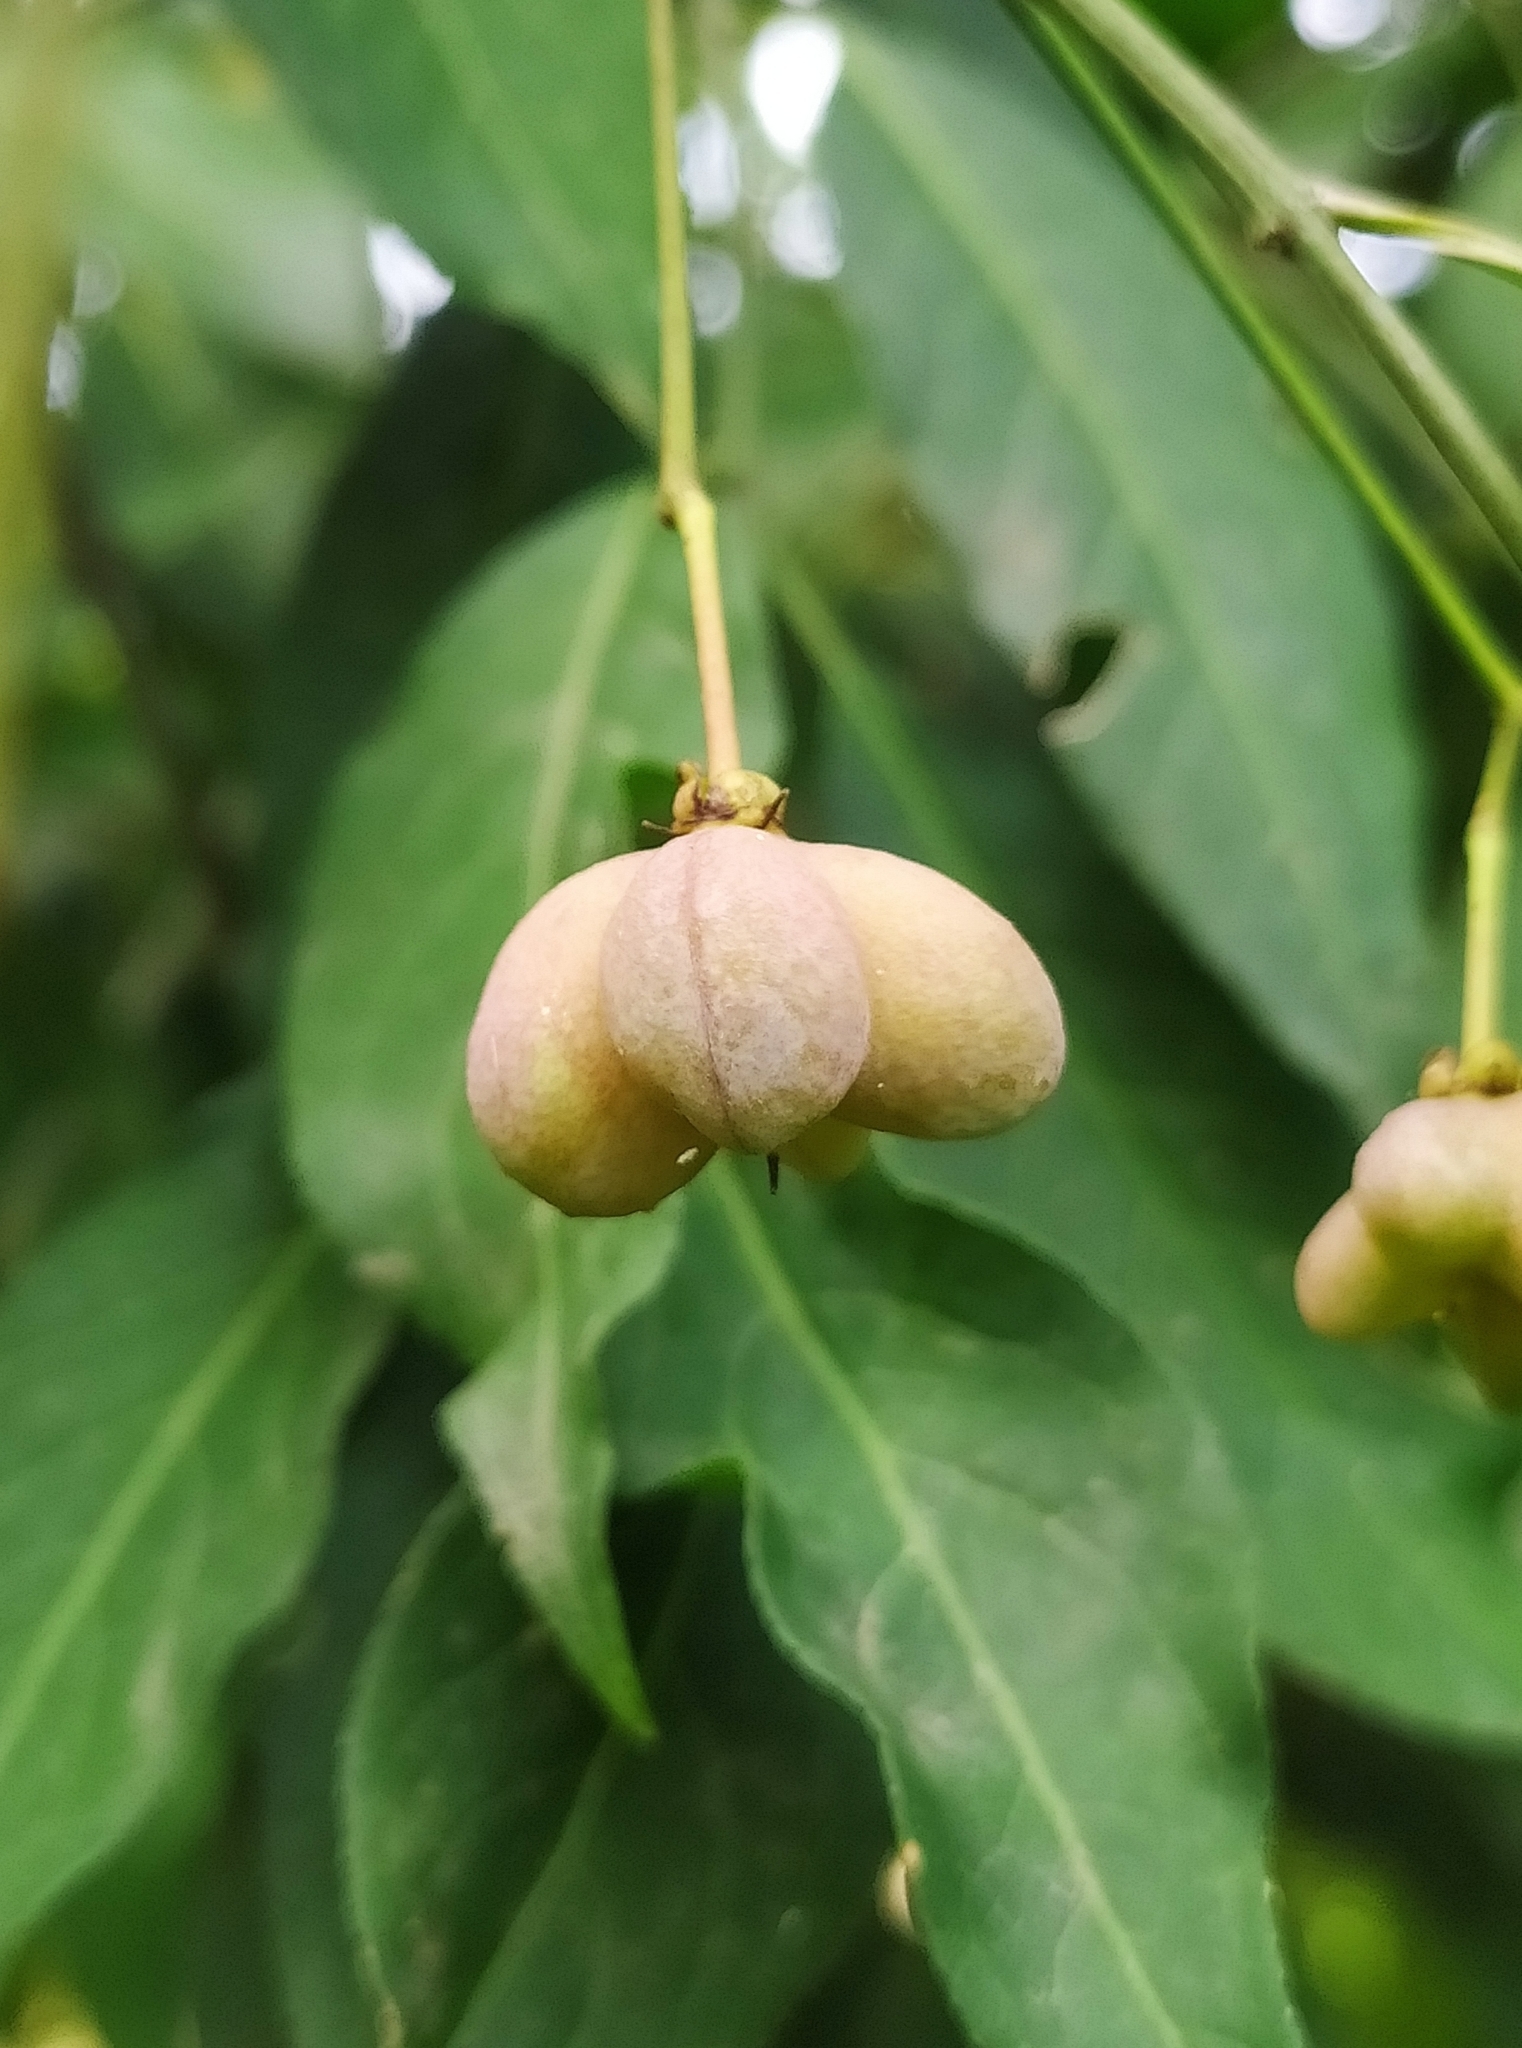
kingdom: Plantae
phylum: Tracheophyta
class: Magnoliopsida
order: Celastrales
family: Celastraceae
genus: Euonymus
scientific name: Euonymus europaeus
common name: Spindle
